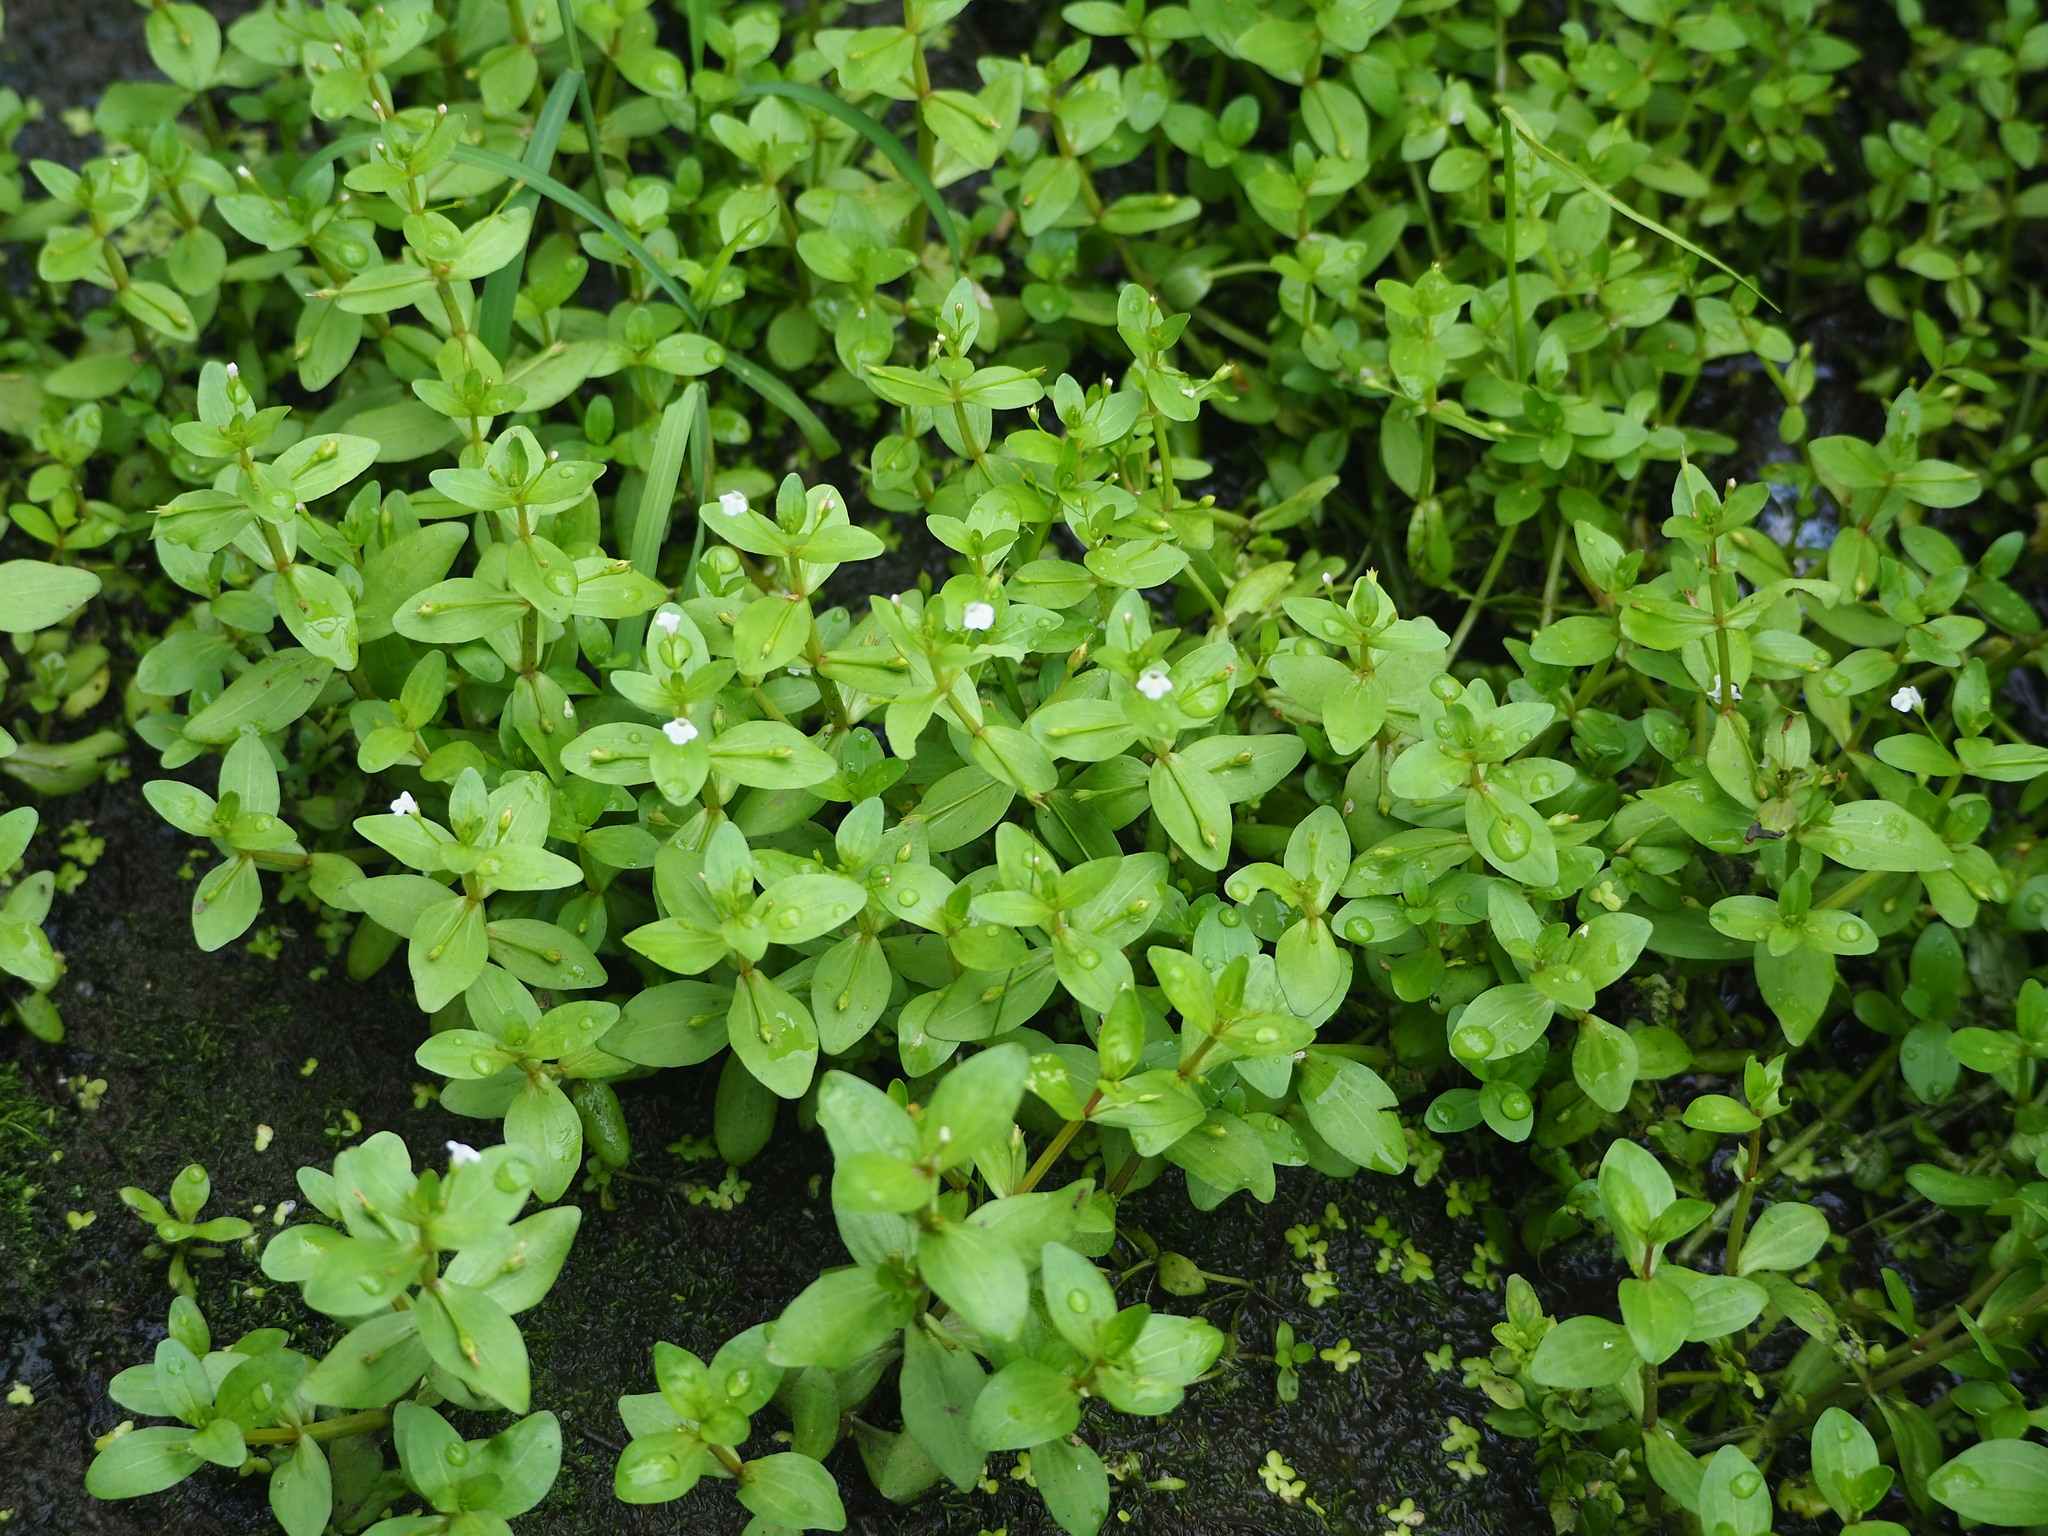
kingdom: Plantae
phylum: Tracheophyta
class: Magnoliopsida
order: Lamiales
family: Linderniaceae
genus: Lindernia
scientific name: Lindernia procumbens
